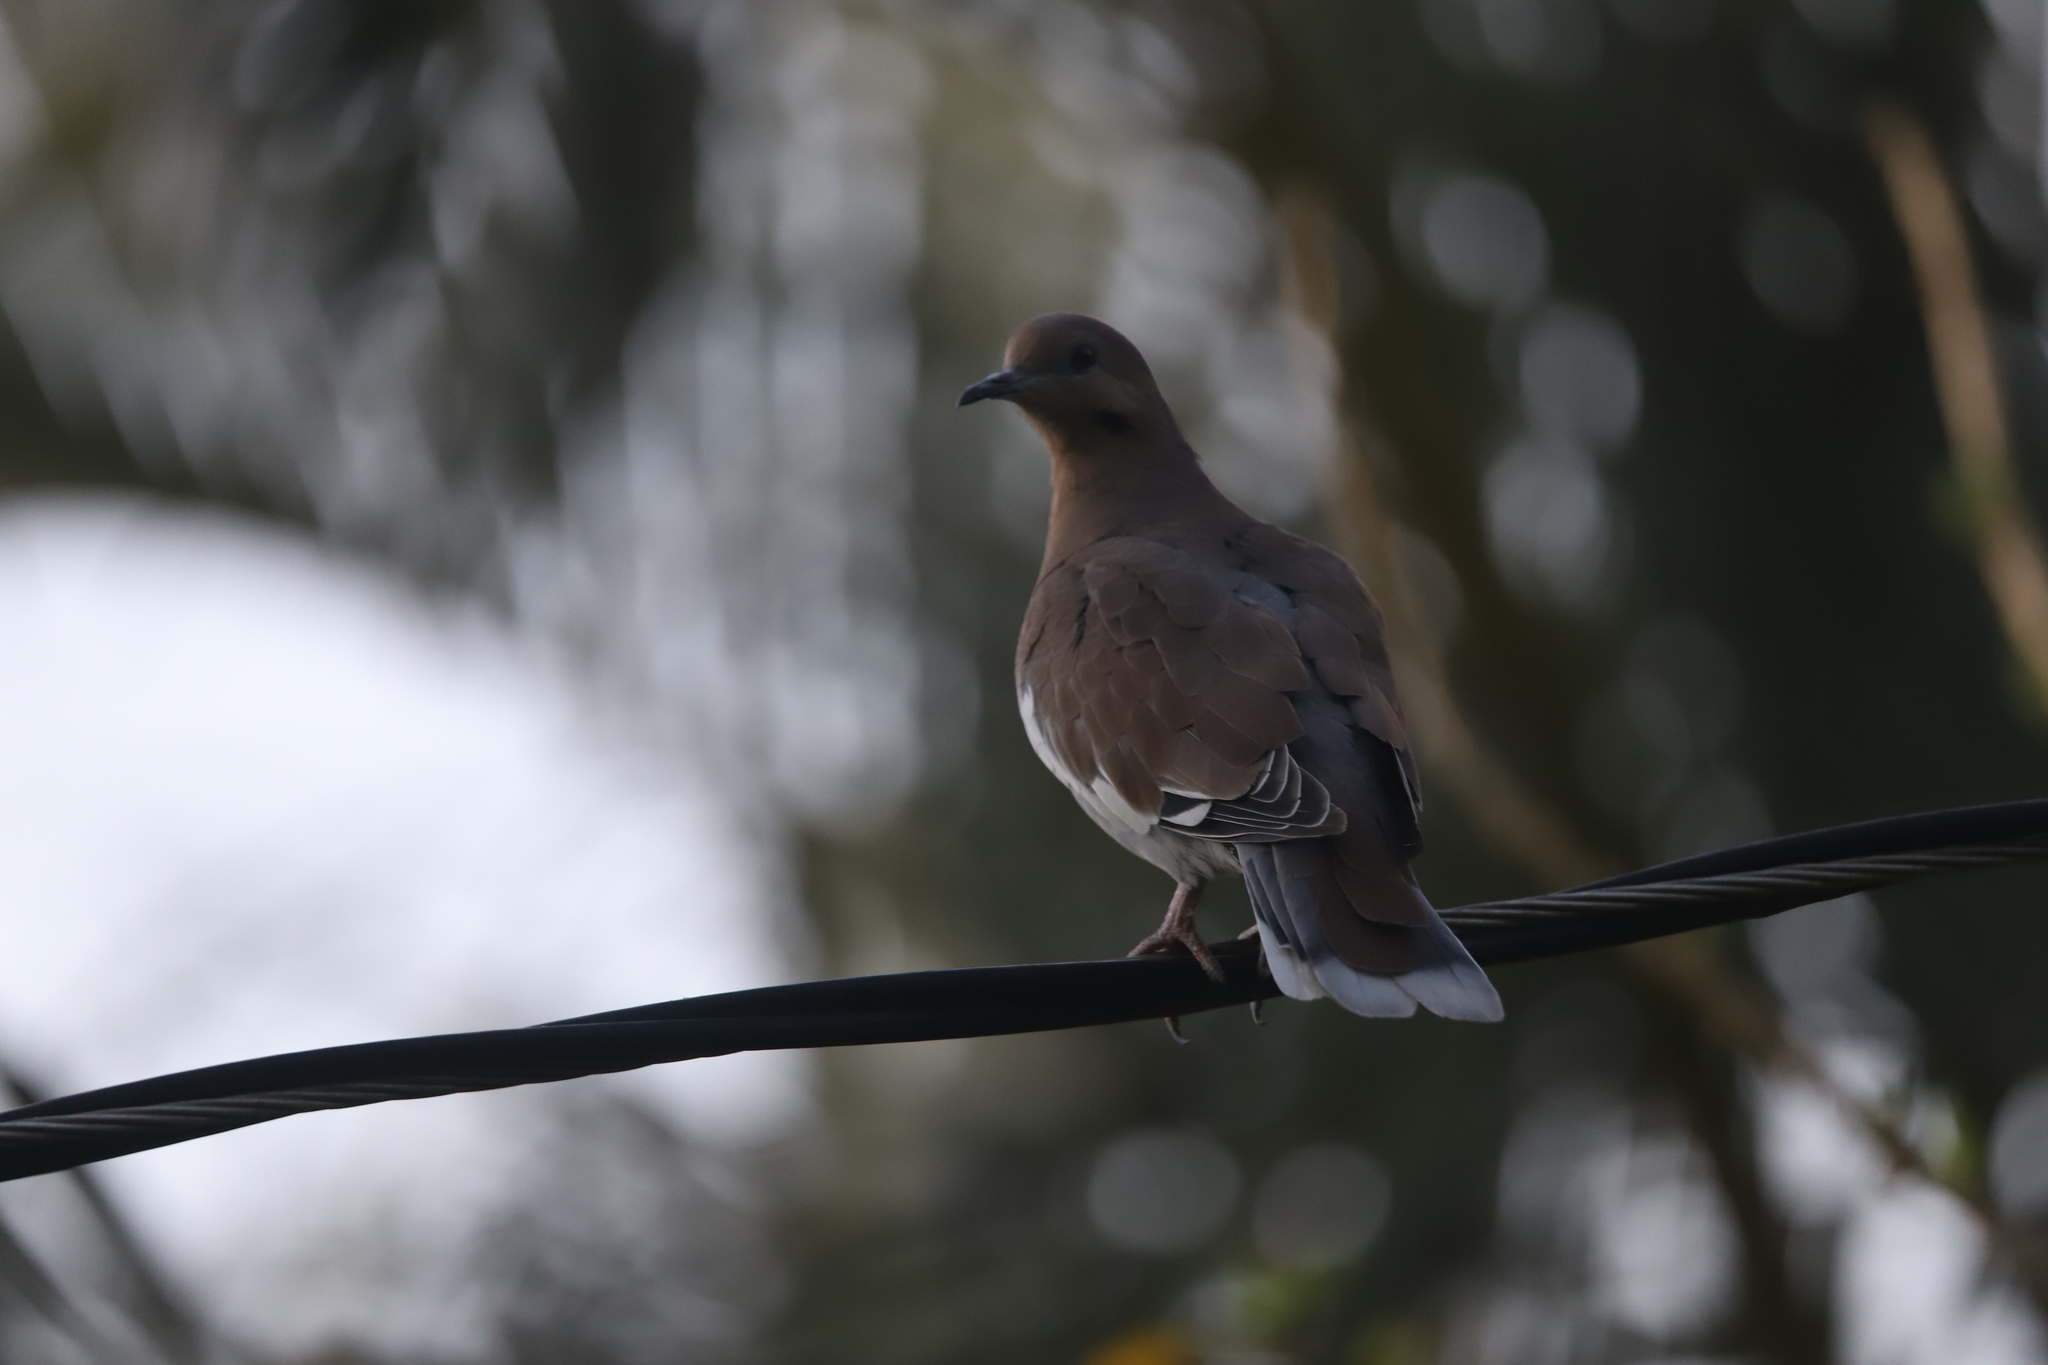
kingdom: Animalia
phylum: Chordata
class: Aves
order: Columbiformes
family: Columbidae
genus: Zenaida
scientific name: Zenaida asiatica
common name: White-winged dove
